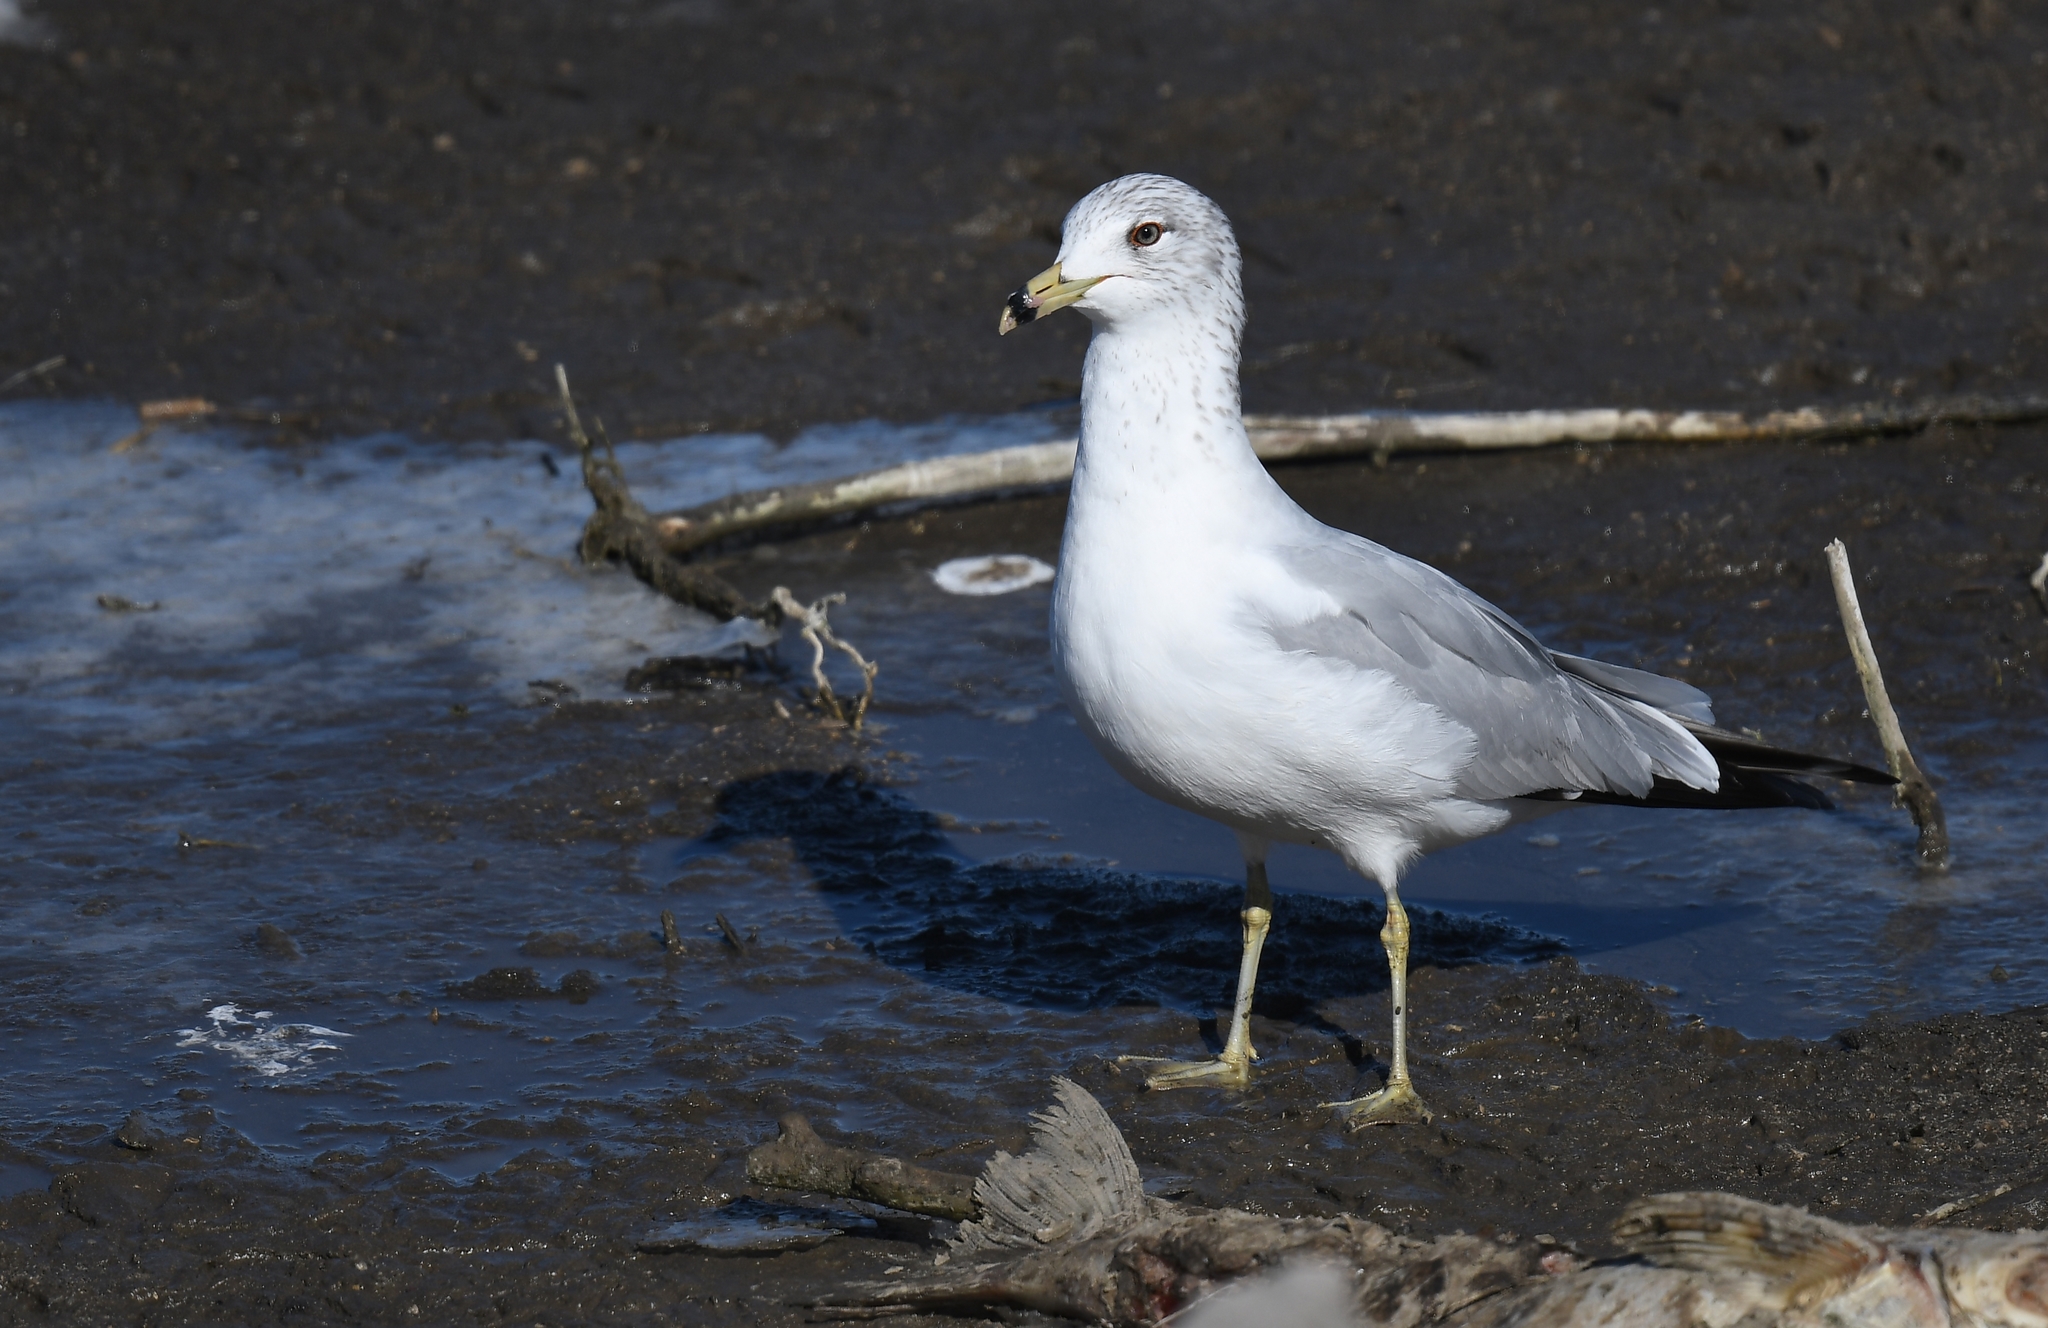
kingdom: Animalia
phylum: Chordata
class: Aves
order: Charadriiformes
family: Laridae
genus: Larus
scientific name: Larus delawarensis
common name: Ring-billed gull
